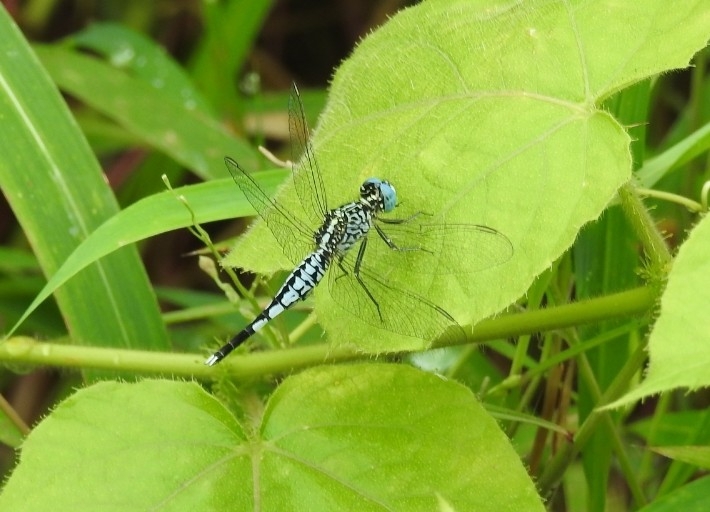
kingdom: Animalia
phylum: Arthropoda
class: Insecta
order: Odonata
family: Libellulidae
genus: Acisoma
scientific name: Acisoma panorpoides
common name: Asian pintail
